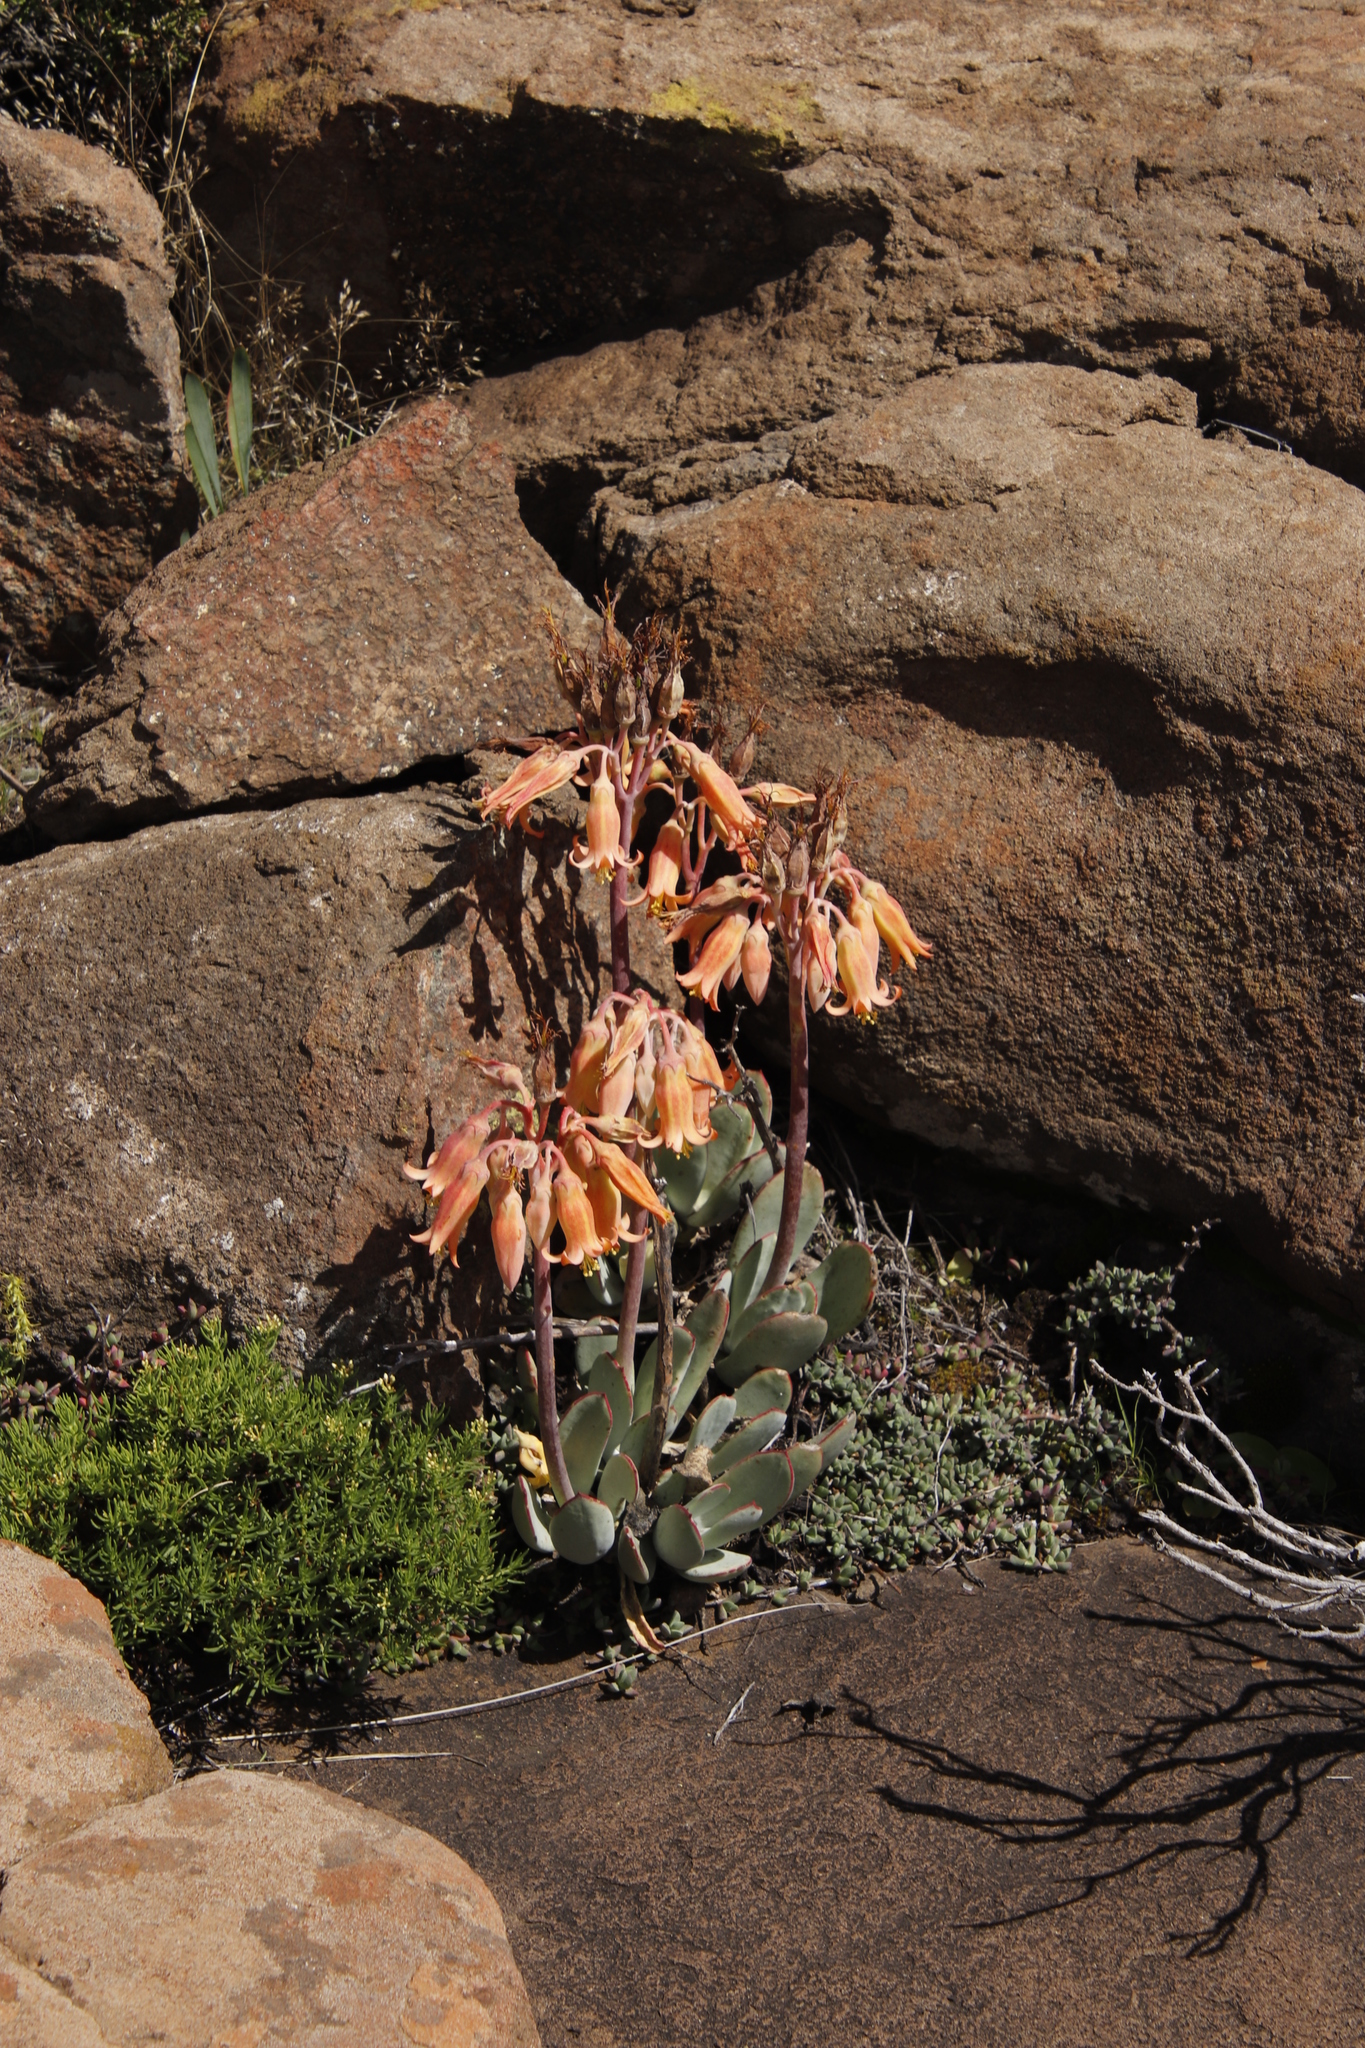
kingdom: Plantae
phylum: Tracheophyta
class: Magnoliopsida
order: Saxifragales
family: Crassulaceae
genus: Cotyledon
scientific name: Cotyledon orbiculata
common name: Pig's ear
